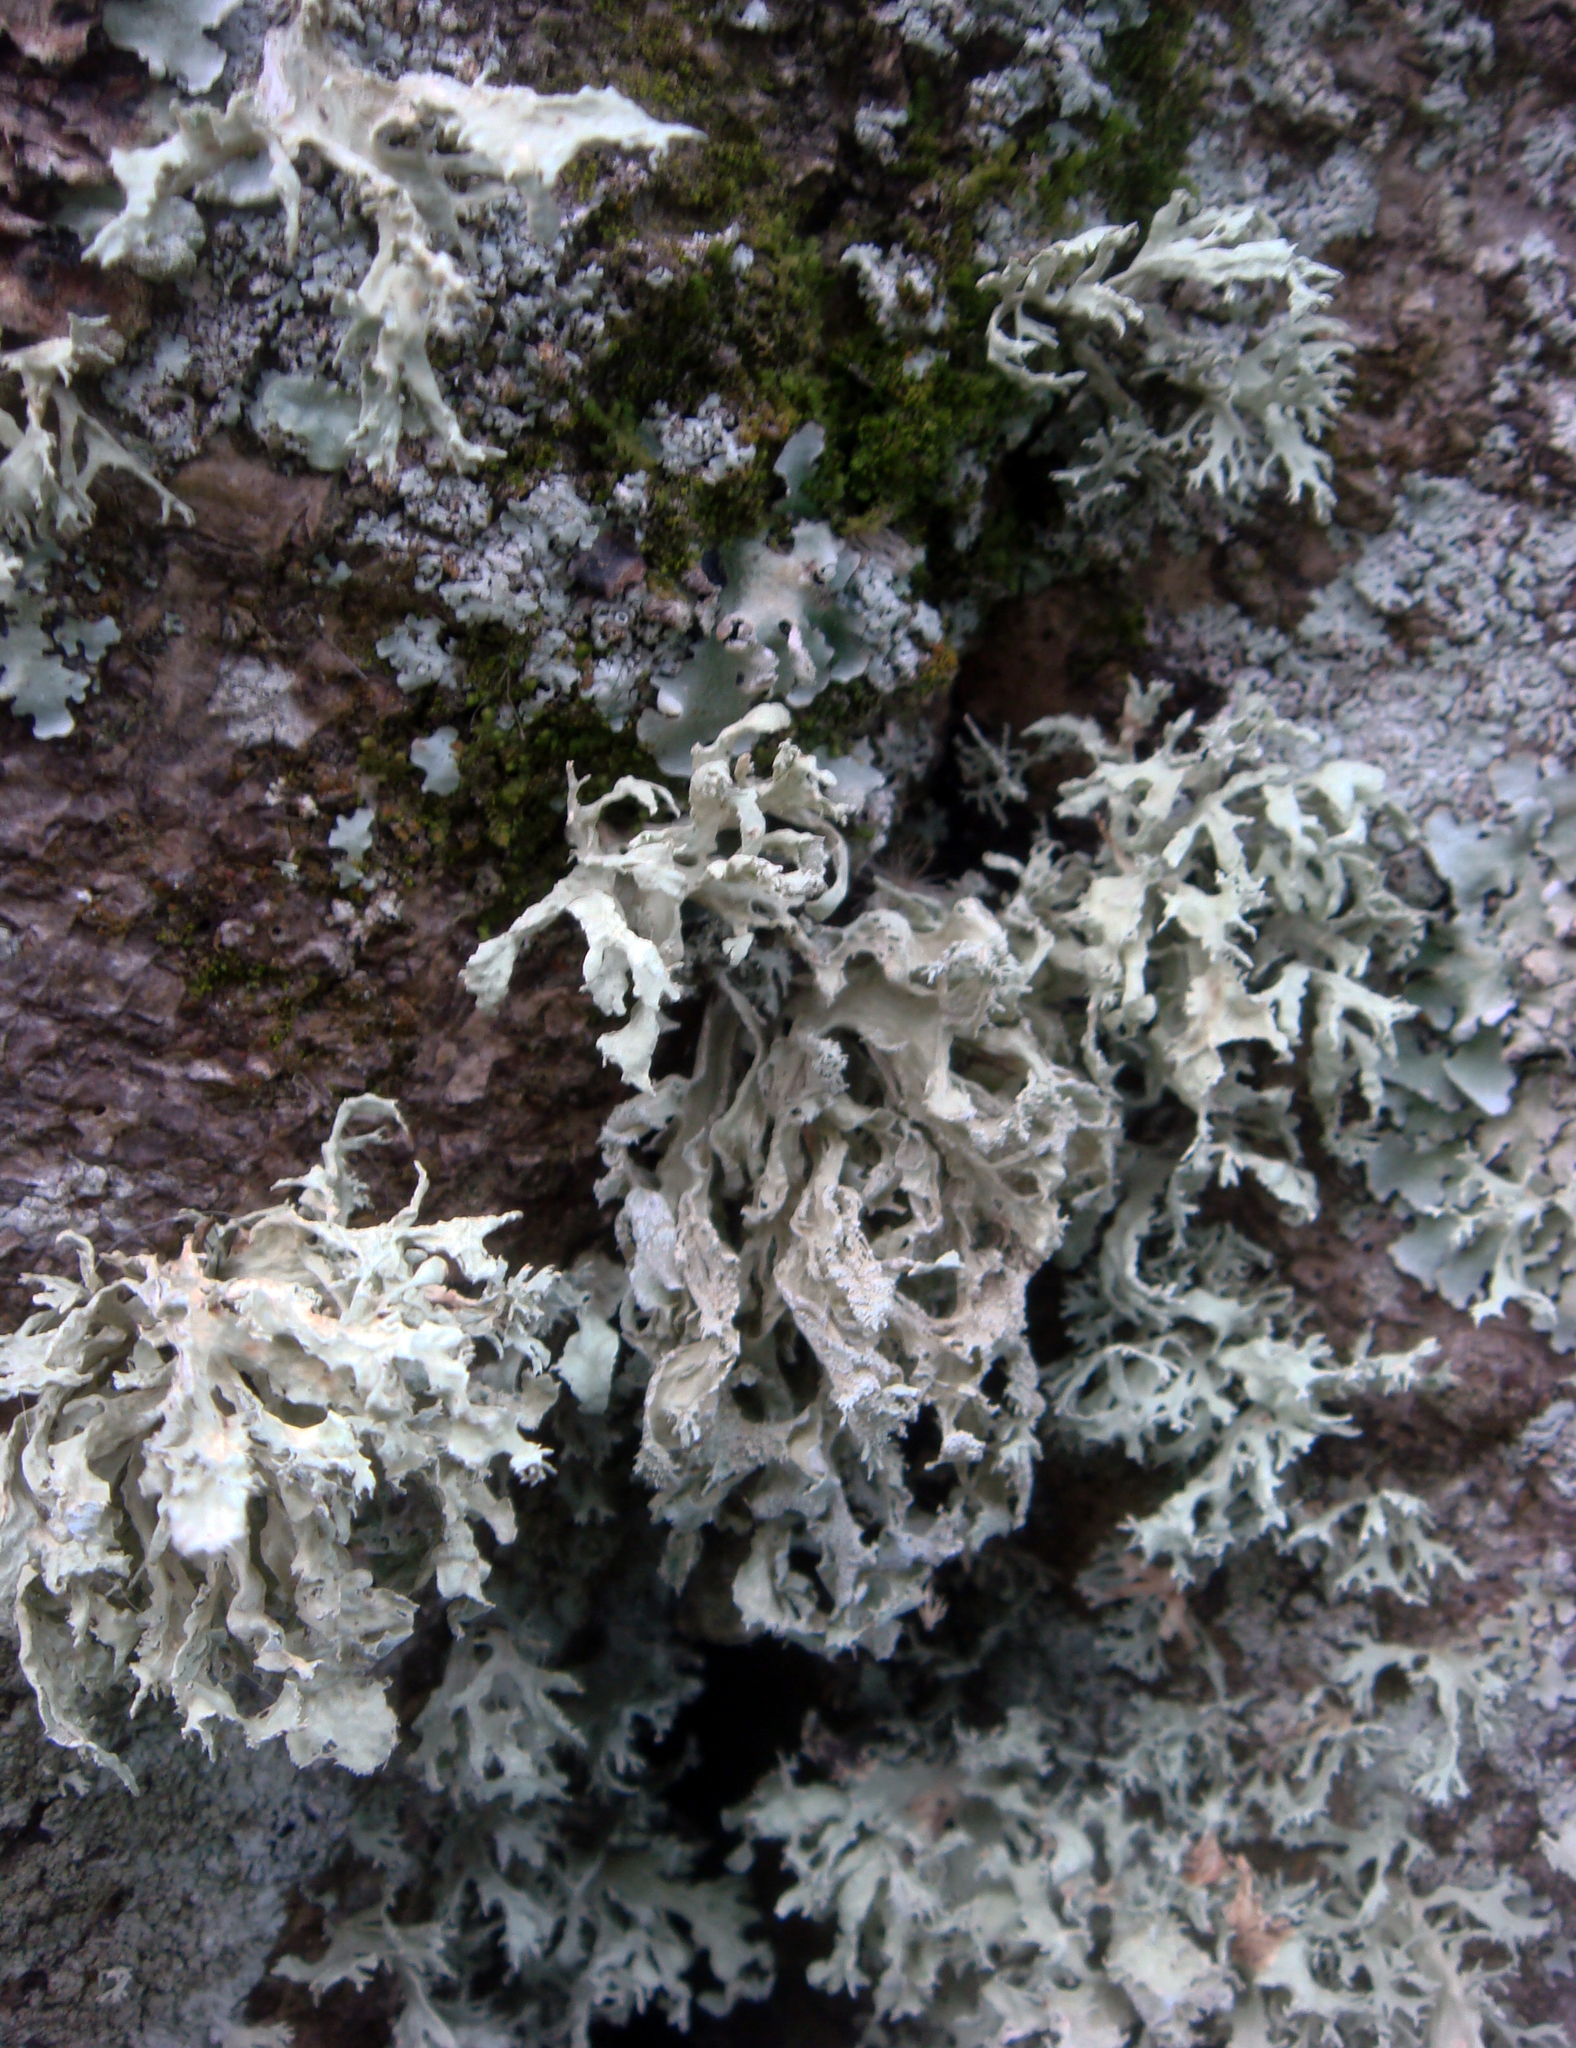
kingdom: Fungi
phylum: Ascomycota
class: Lecanoromycetes
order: Lecanorales
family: Ramalinaceae
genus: Ramalina
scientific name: Ramalina canariensis
